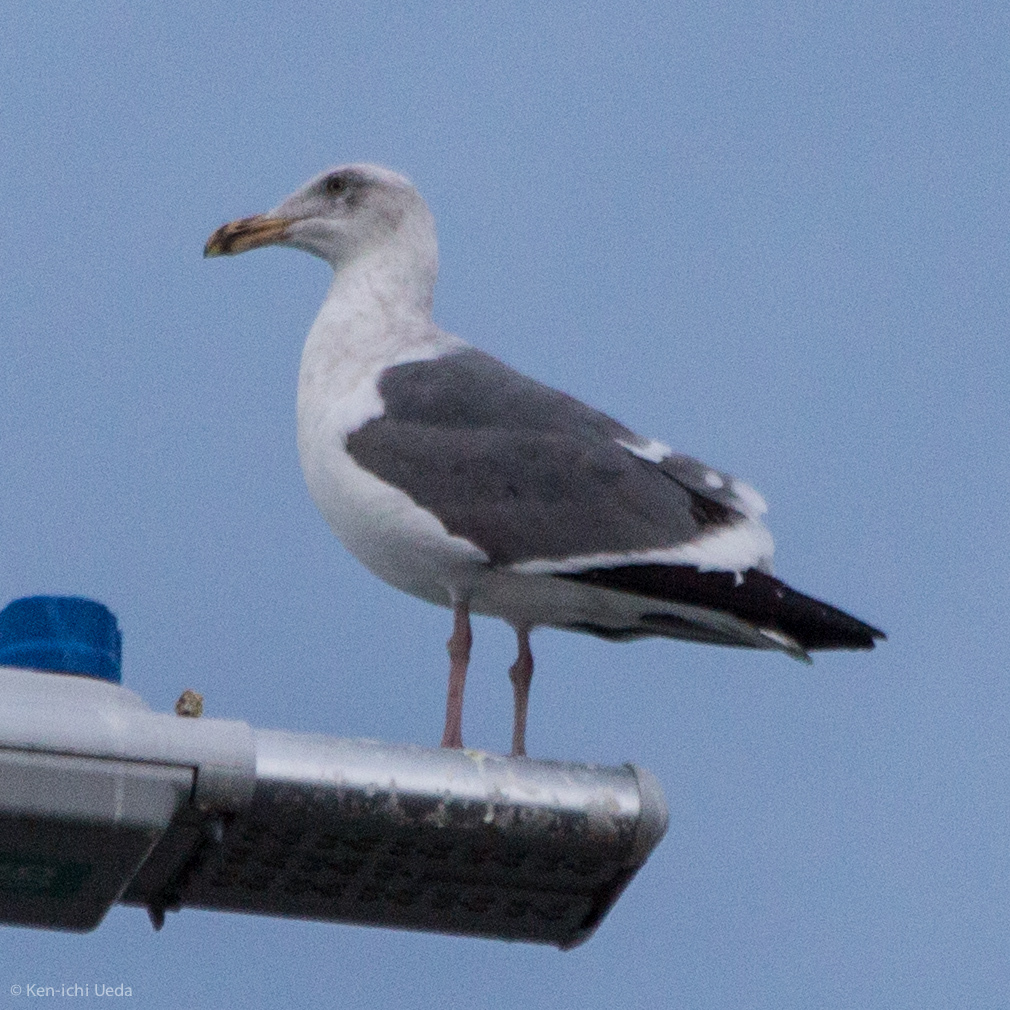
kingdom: Animalia
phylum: Chordata
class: Aves
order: Charadriiformes
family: Laridae
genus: Larus
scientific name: Larus occidentalis
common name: Western gull
